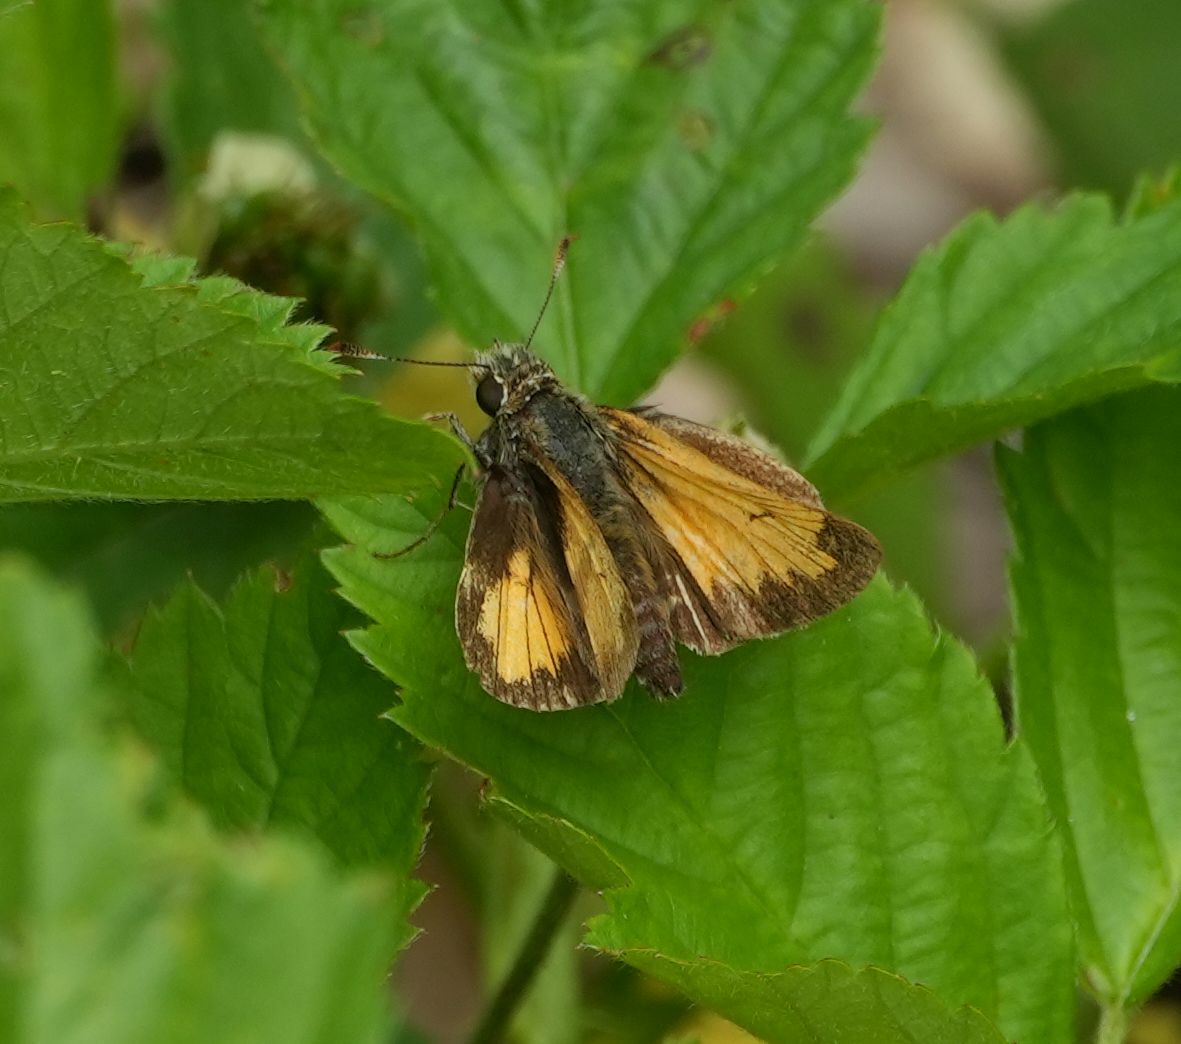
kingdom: Animalia
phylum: Arthropoda
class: Insecta
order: Lepidoptera
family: Hesperiidae
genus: Lon
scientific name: Lon hobomok
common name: Hobomok skipper
